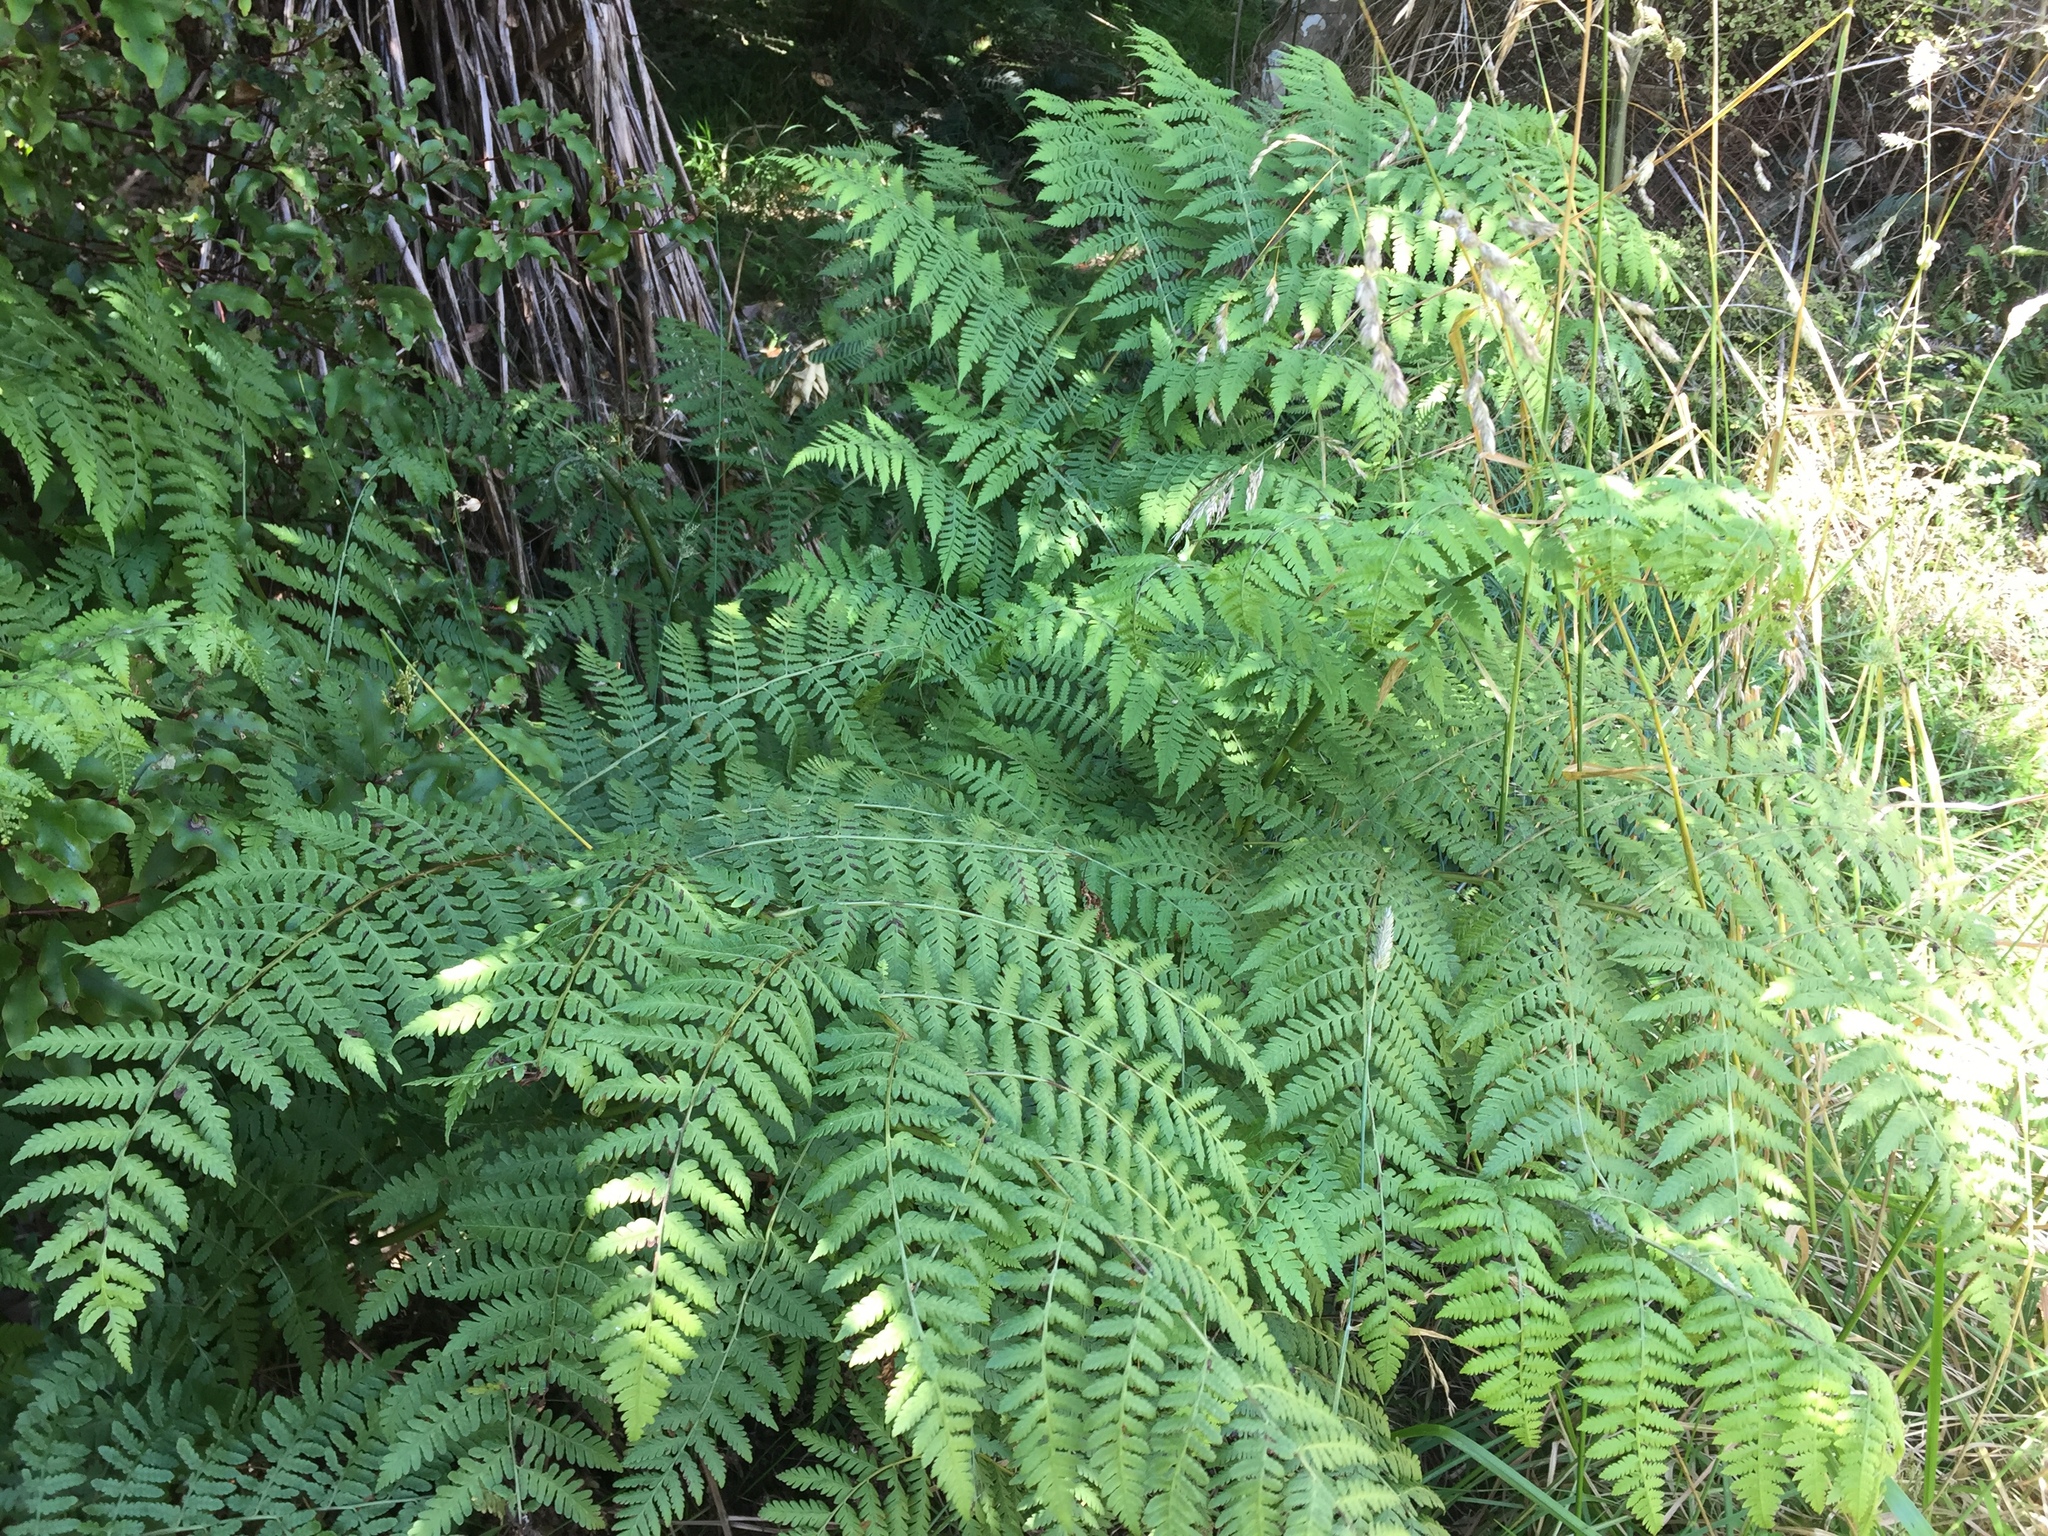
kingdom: Plantae
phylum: Tracheophyta
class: Polypodiopsida
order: Polypodiales
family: Athyriaceae
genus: Diplazium
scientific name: Diplazium australe
